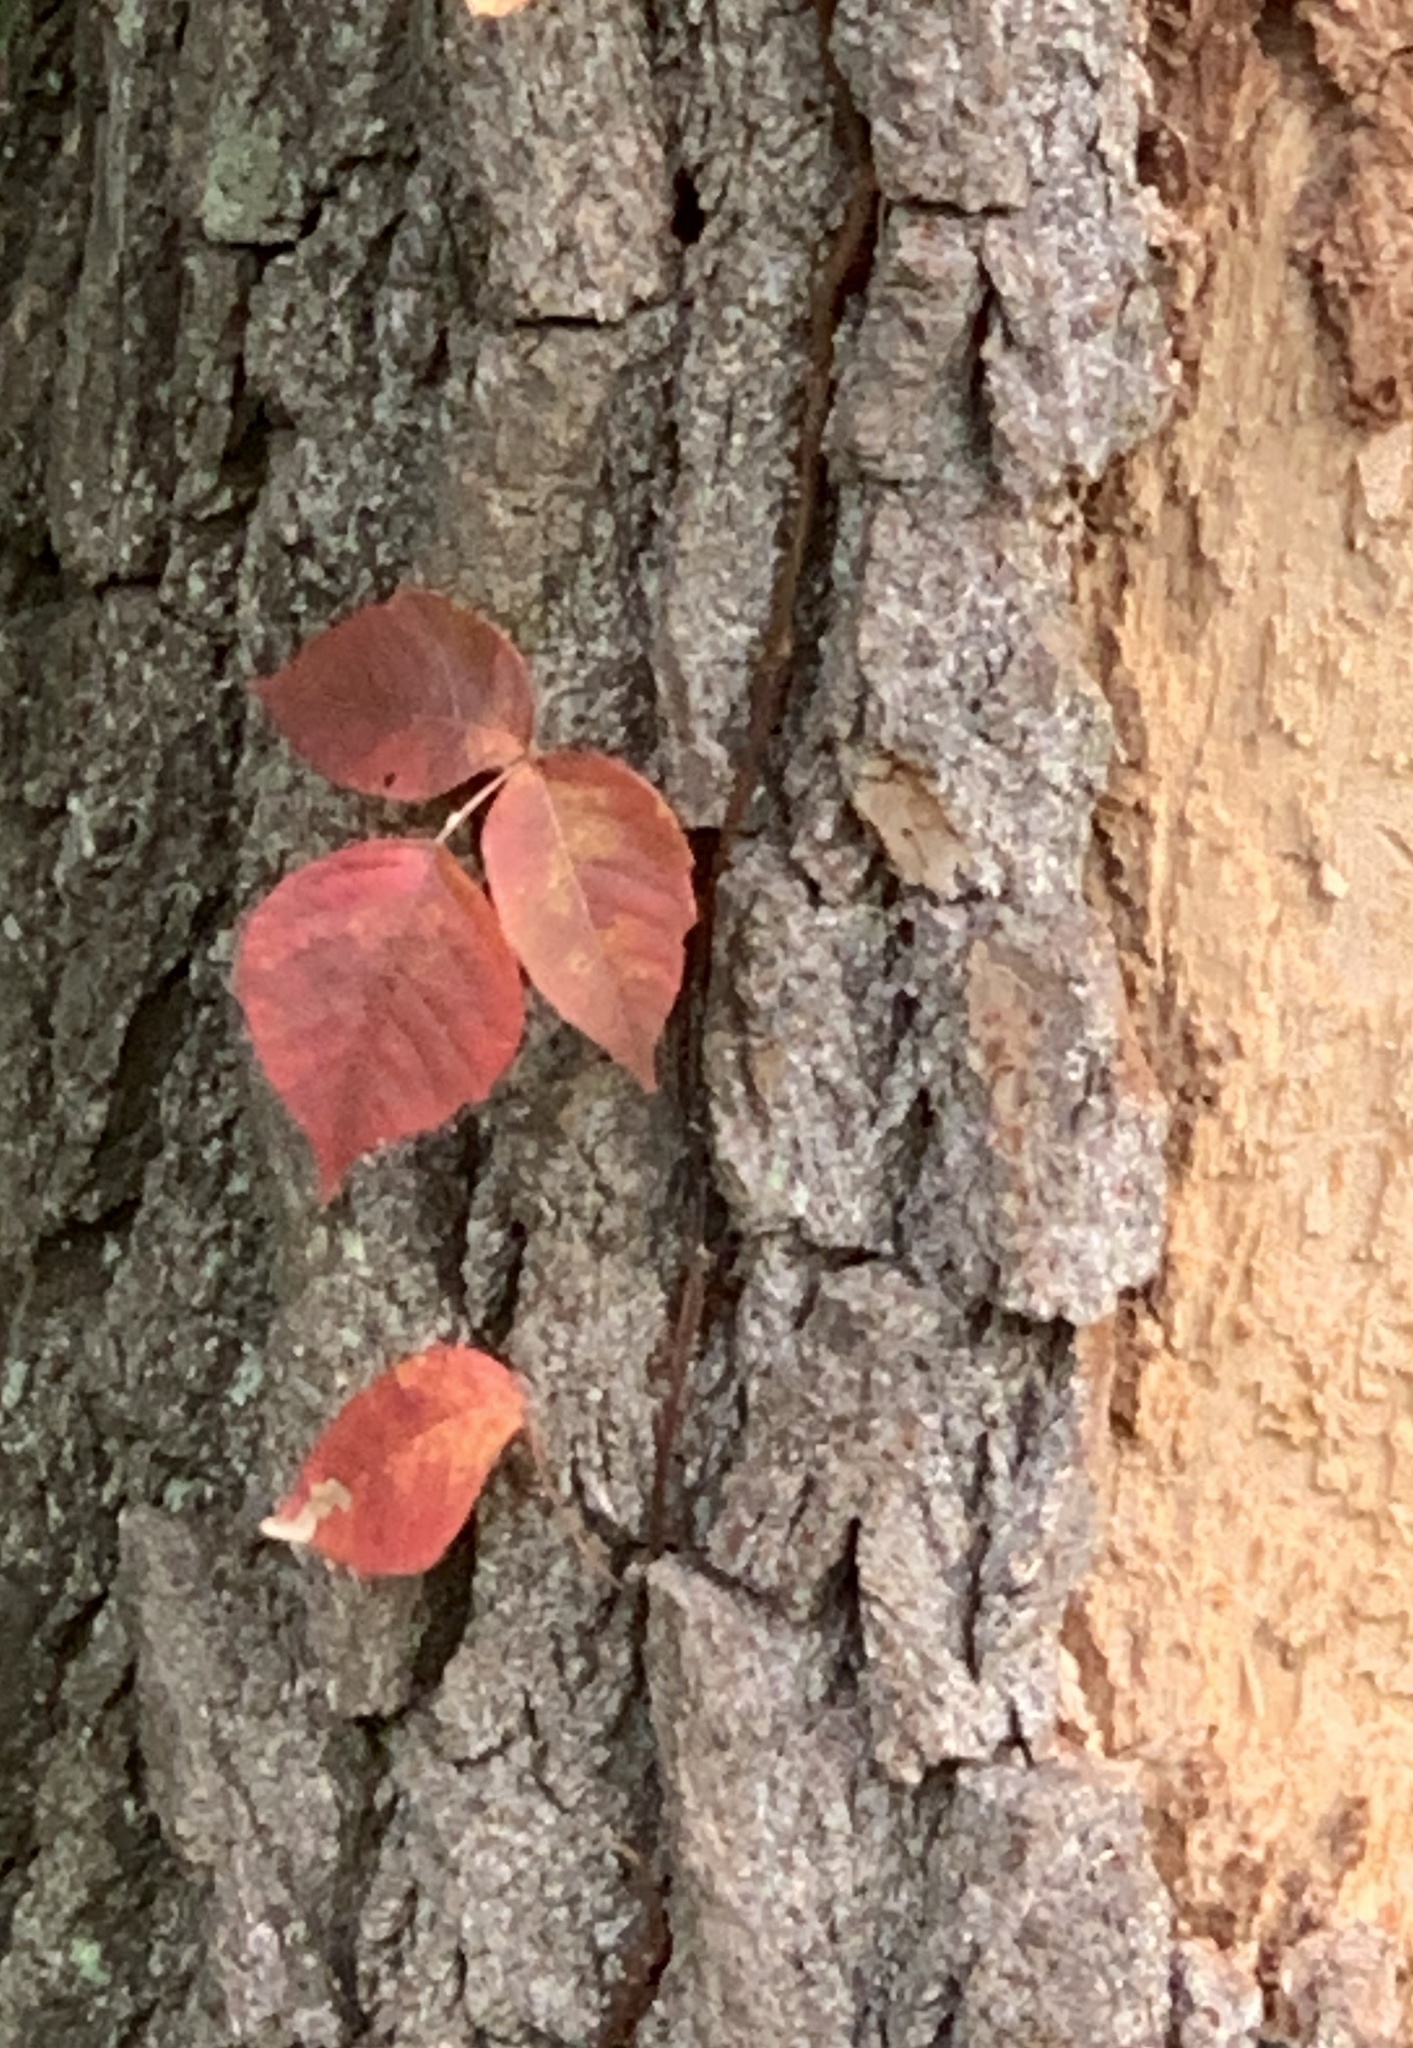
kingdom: Plantae
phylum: Tracheophyta
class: Magnoliopsida
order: Sapindales
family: Anacardiaceae
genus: Toxicodendron
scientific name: Toxicodendron radicans
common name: Poison ivy
